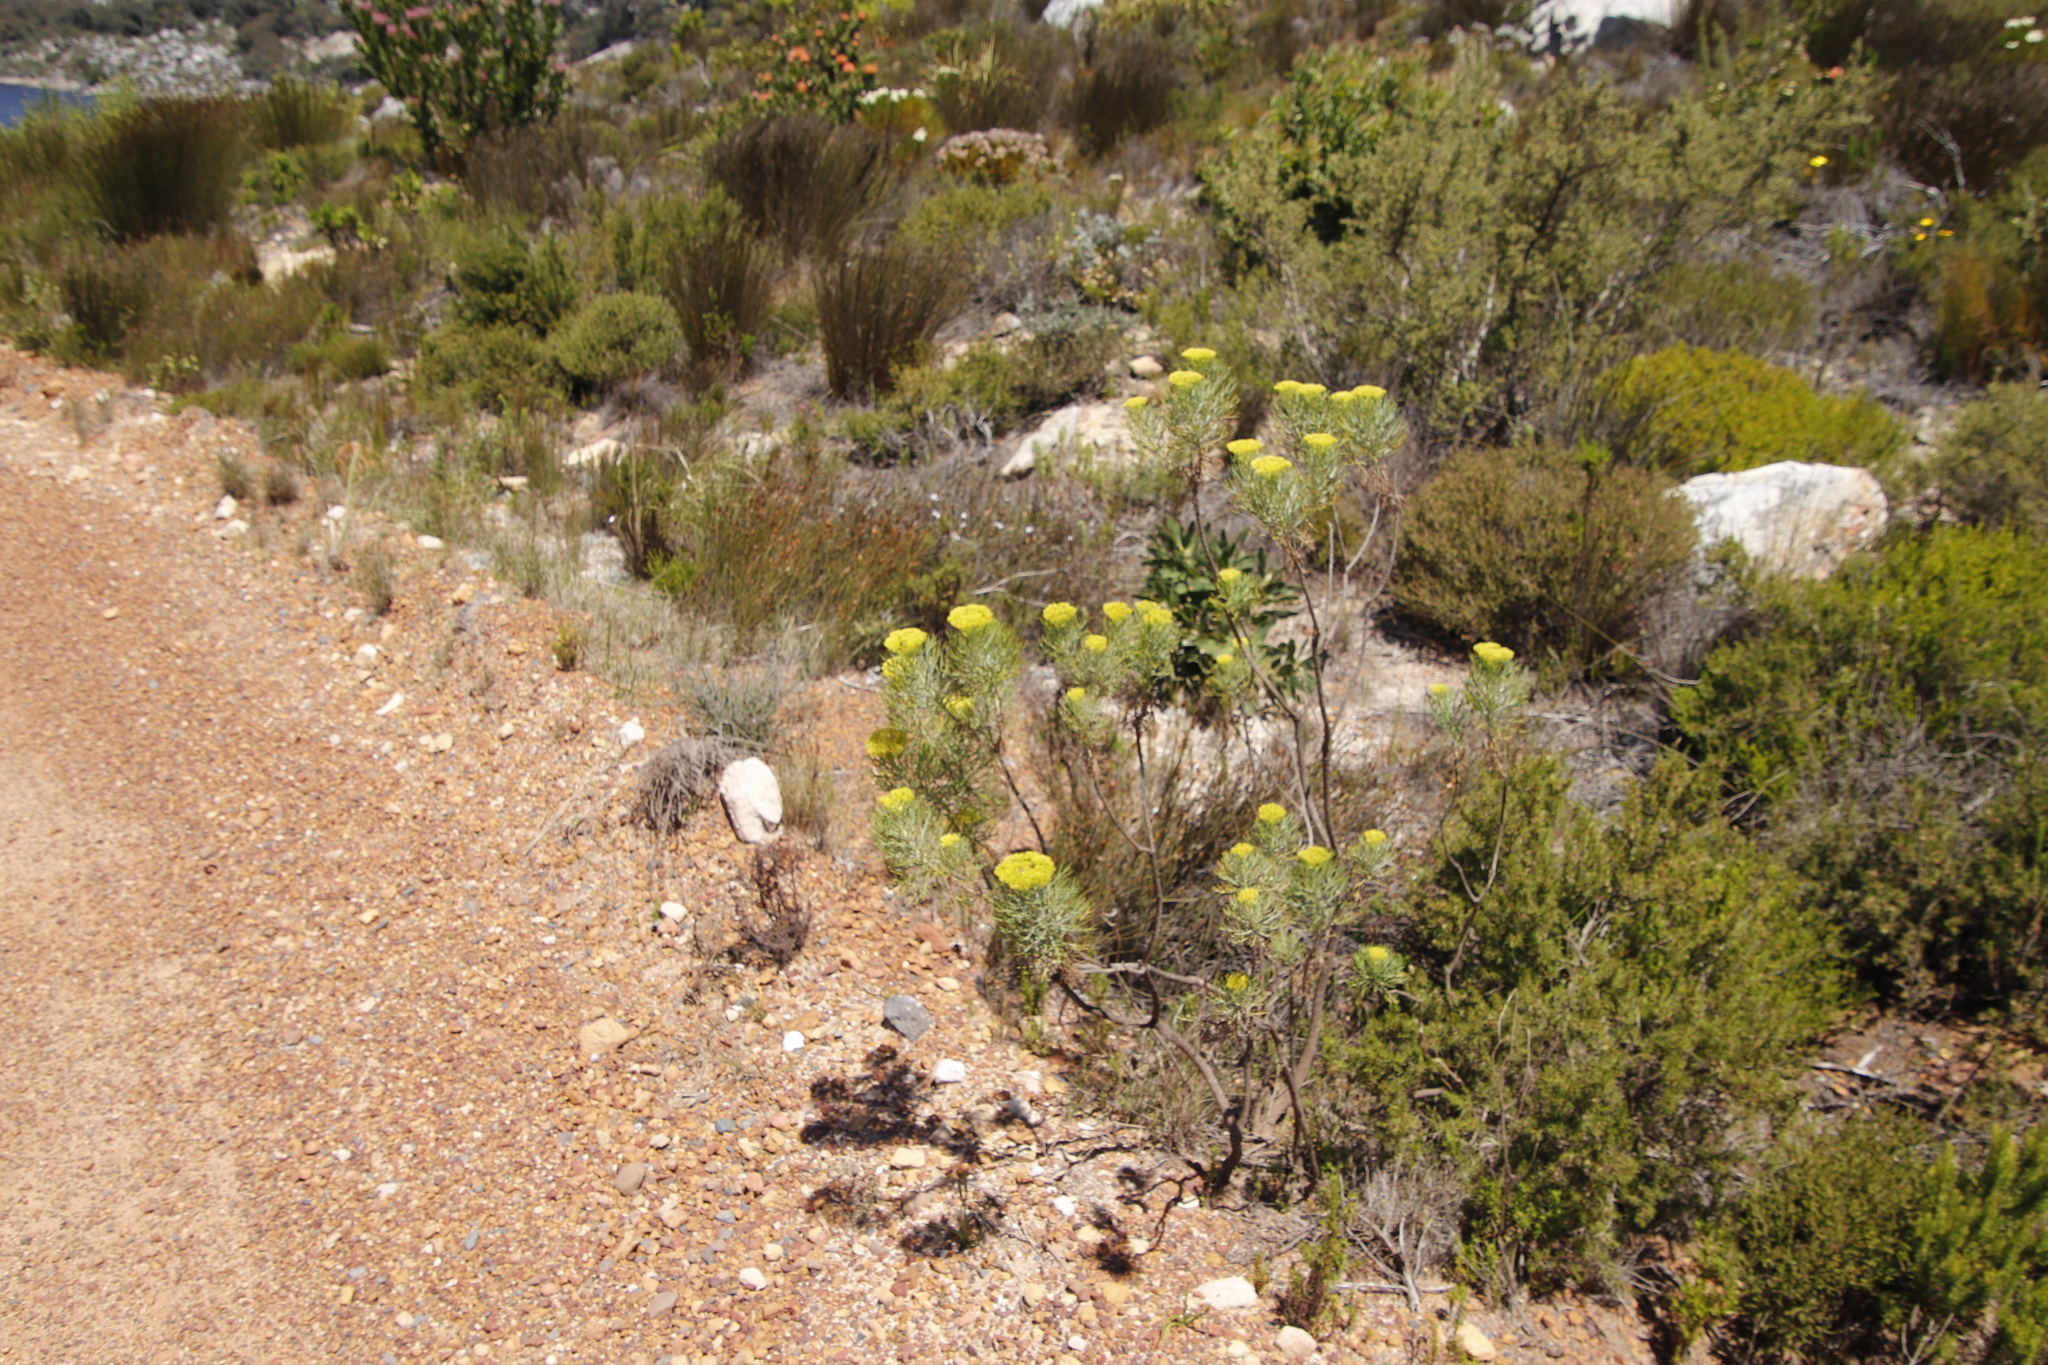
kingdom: Plantae
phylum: Tracheophyta
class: Magnoliopsida
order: Asterales
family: Asteraceae
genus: Hymenolepis
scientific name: Hymenolepis crithmifolia
